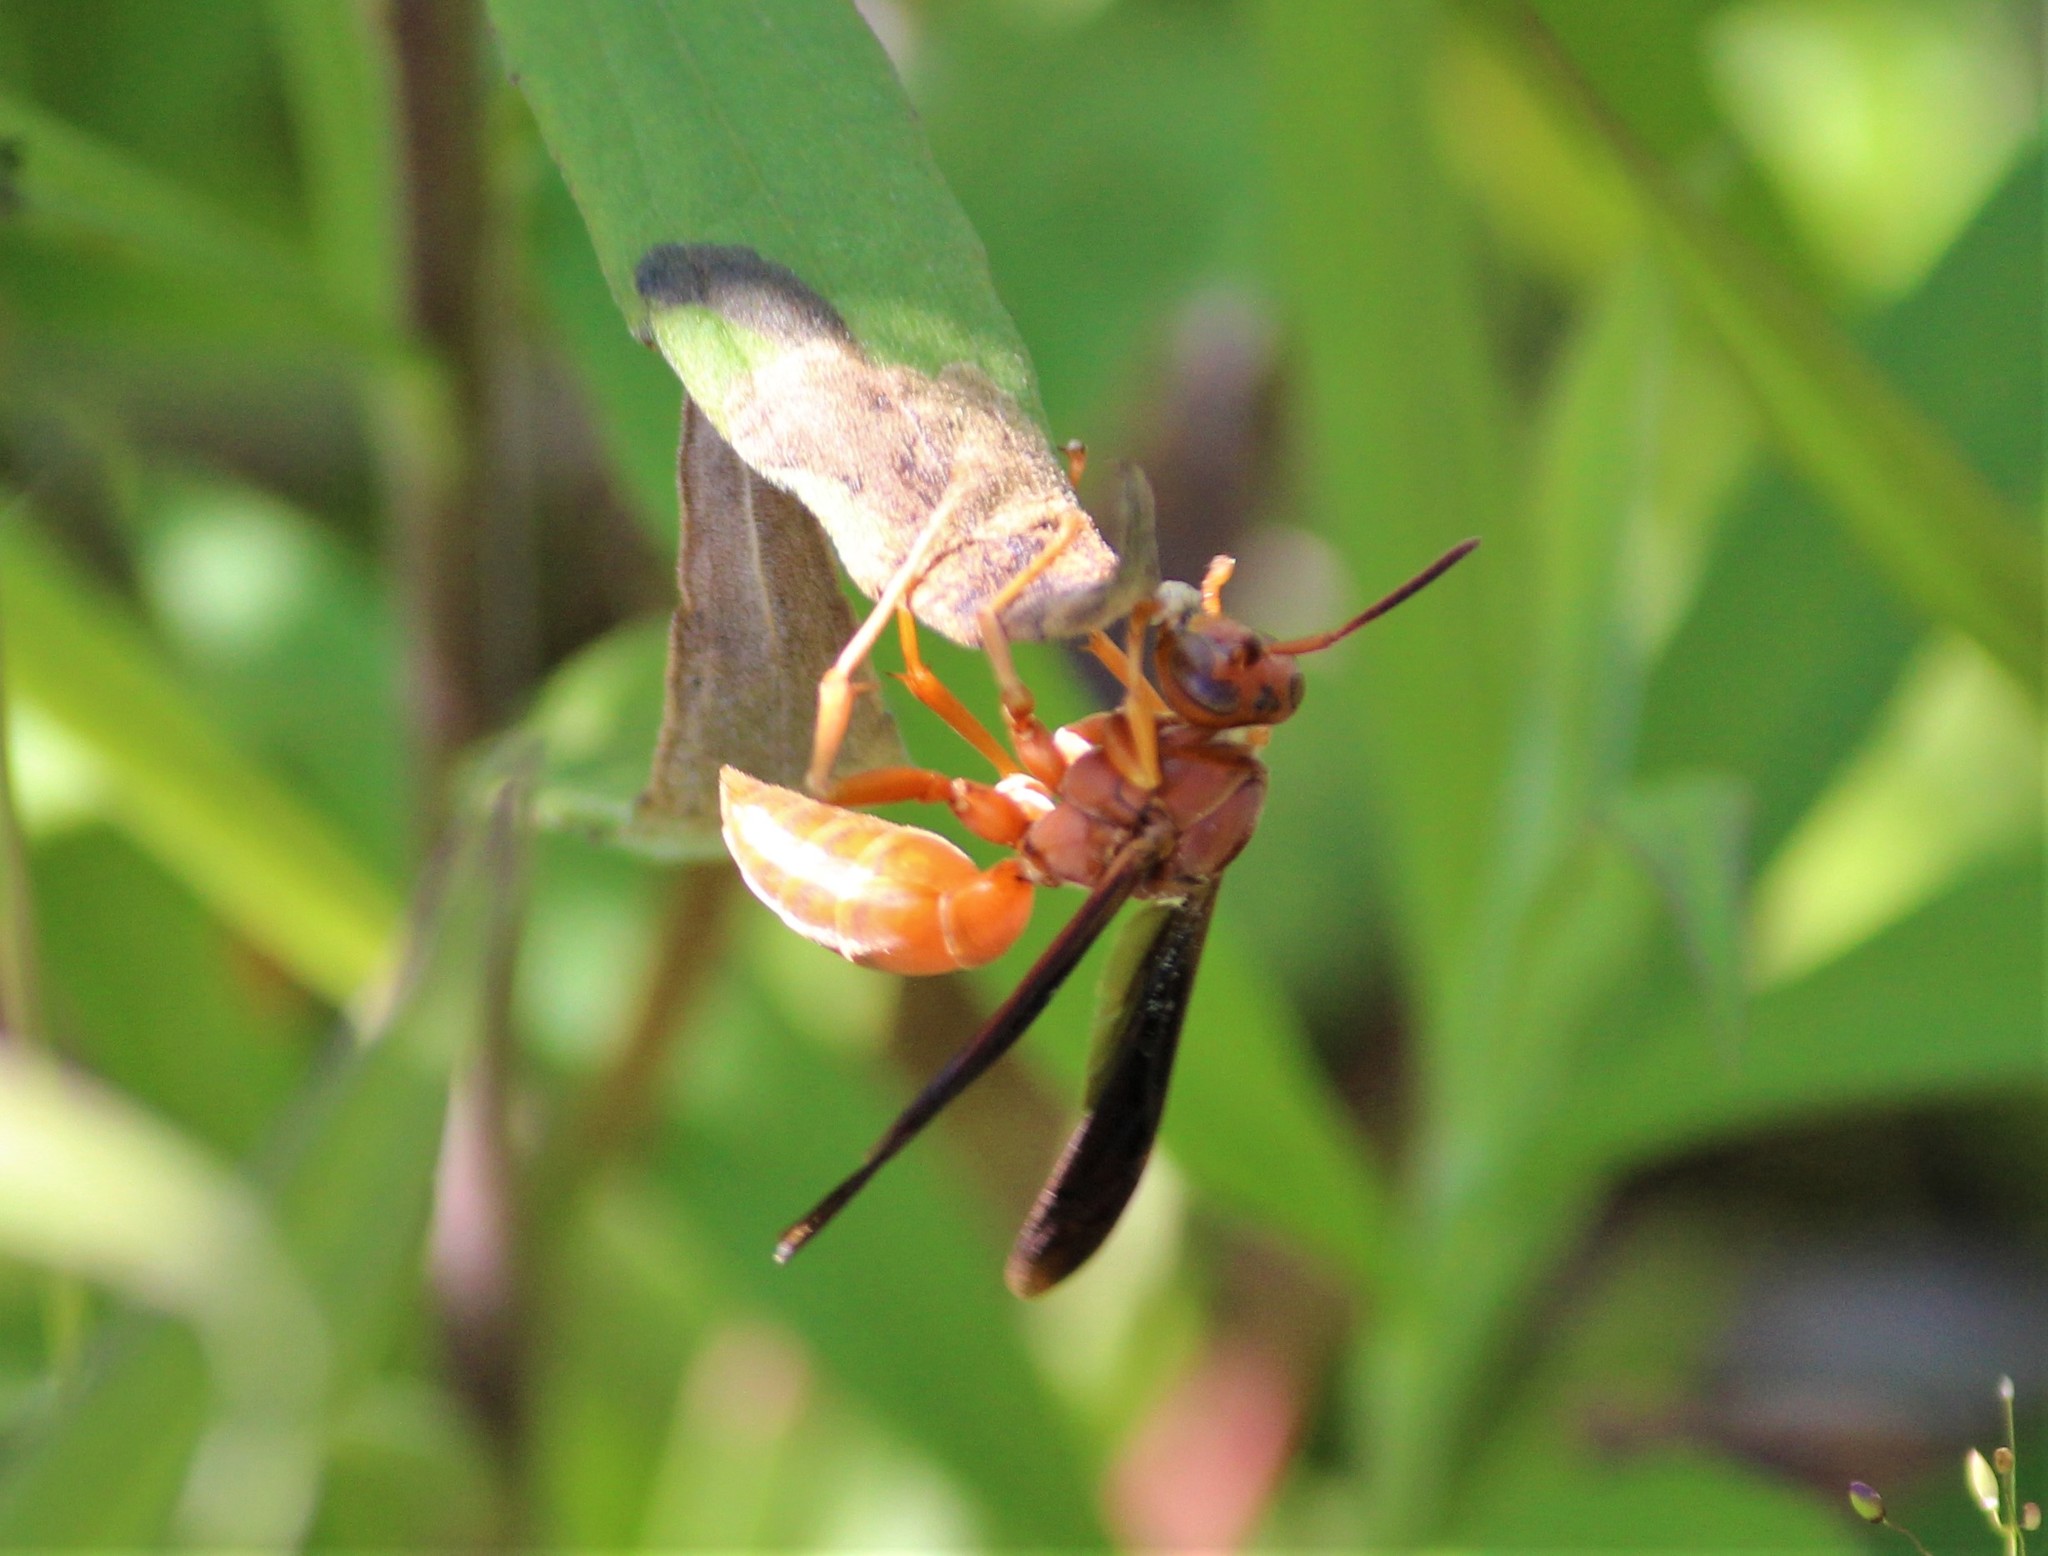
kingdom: Animalia
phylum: Arthropoda
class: Insecta
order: Hymenoptera
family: Vespidae
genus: Fuscopolistes
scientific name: Fuscopolistes
